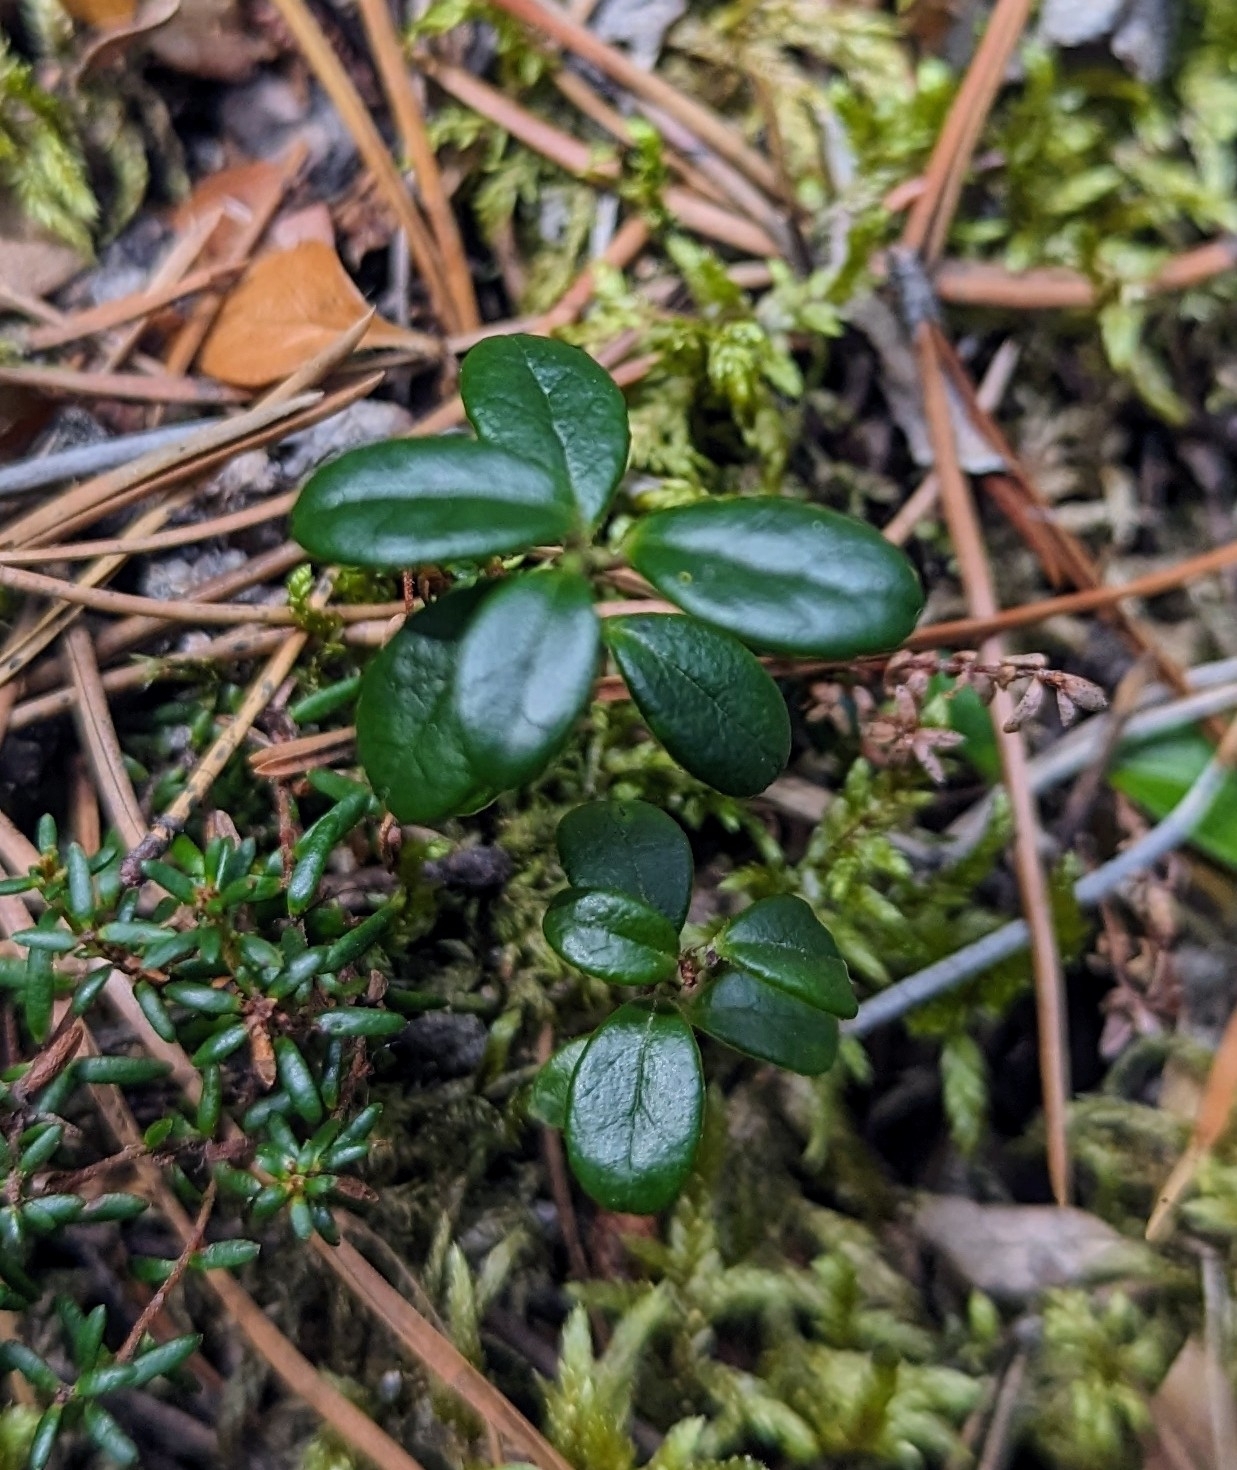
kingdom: Plantae
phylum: Tracheophyta
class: Magnoliopsida
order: Ericales
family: Ericaceae
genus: Vaccinium
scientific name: Vaccinium vitis-idaea
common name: Cowberry
